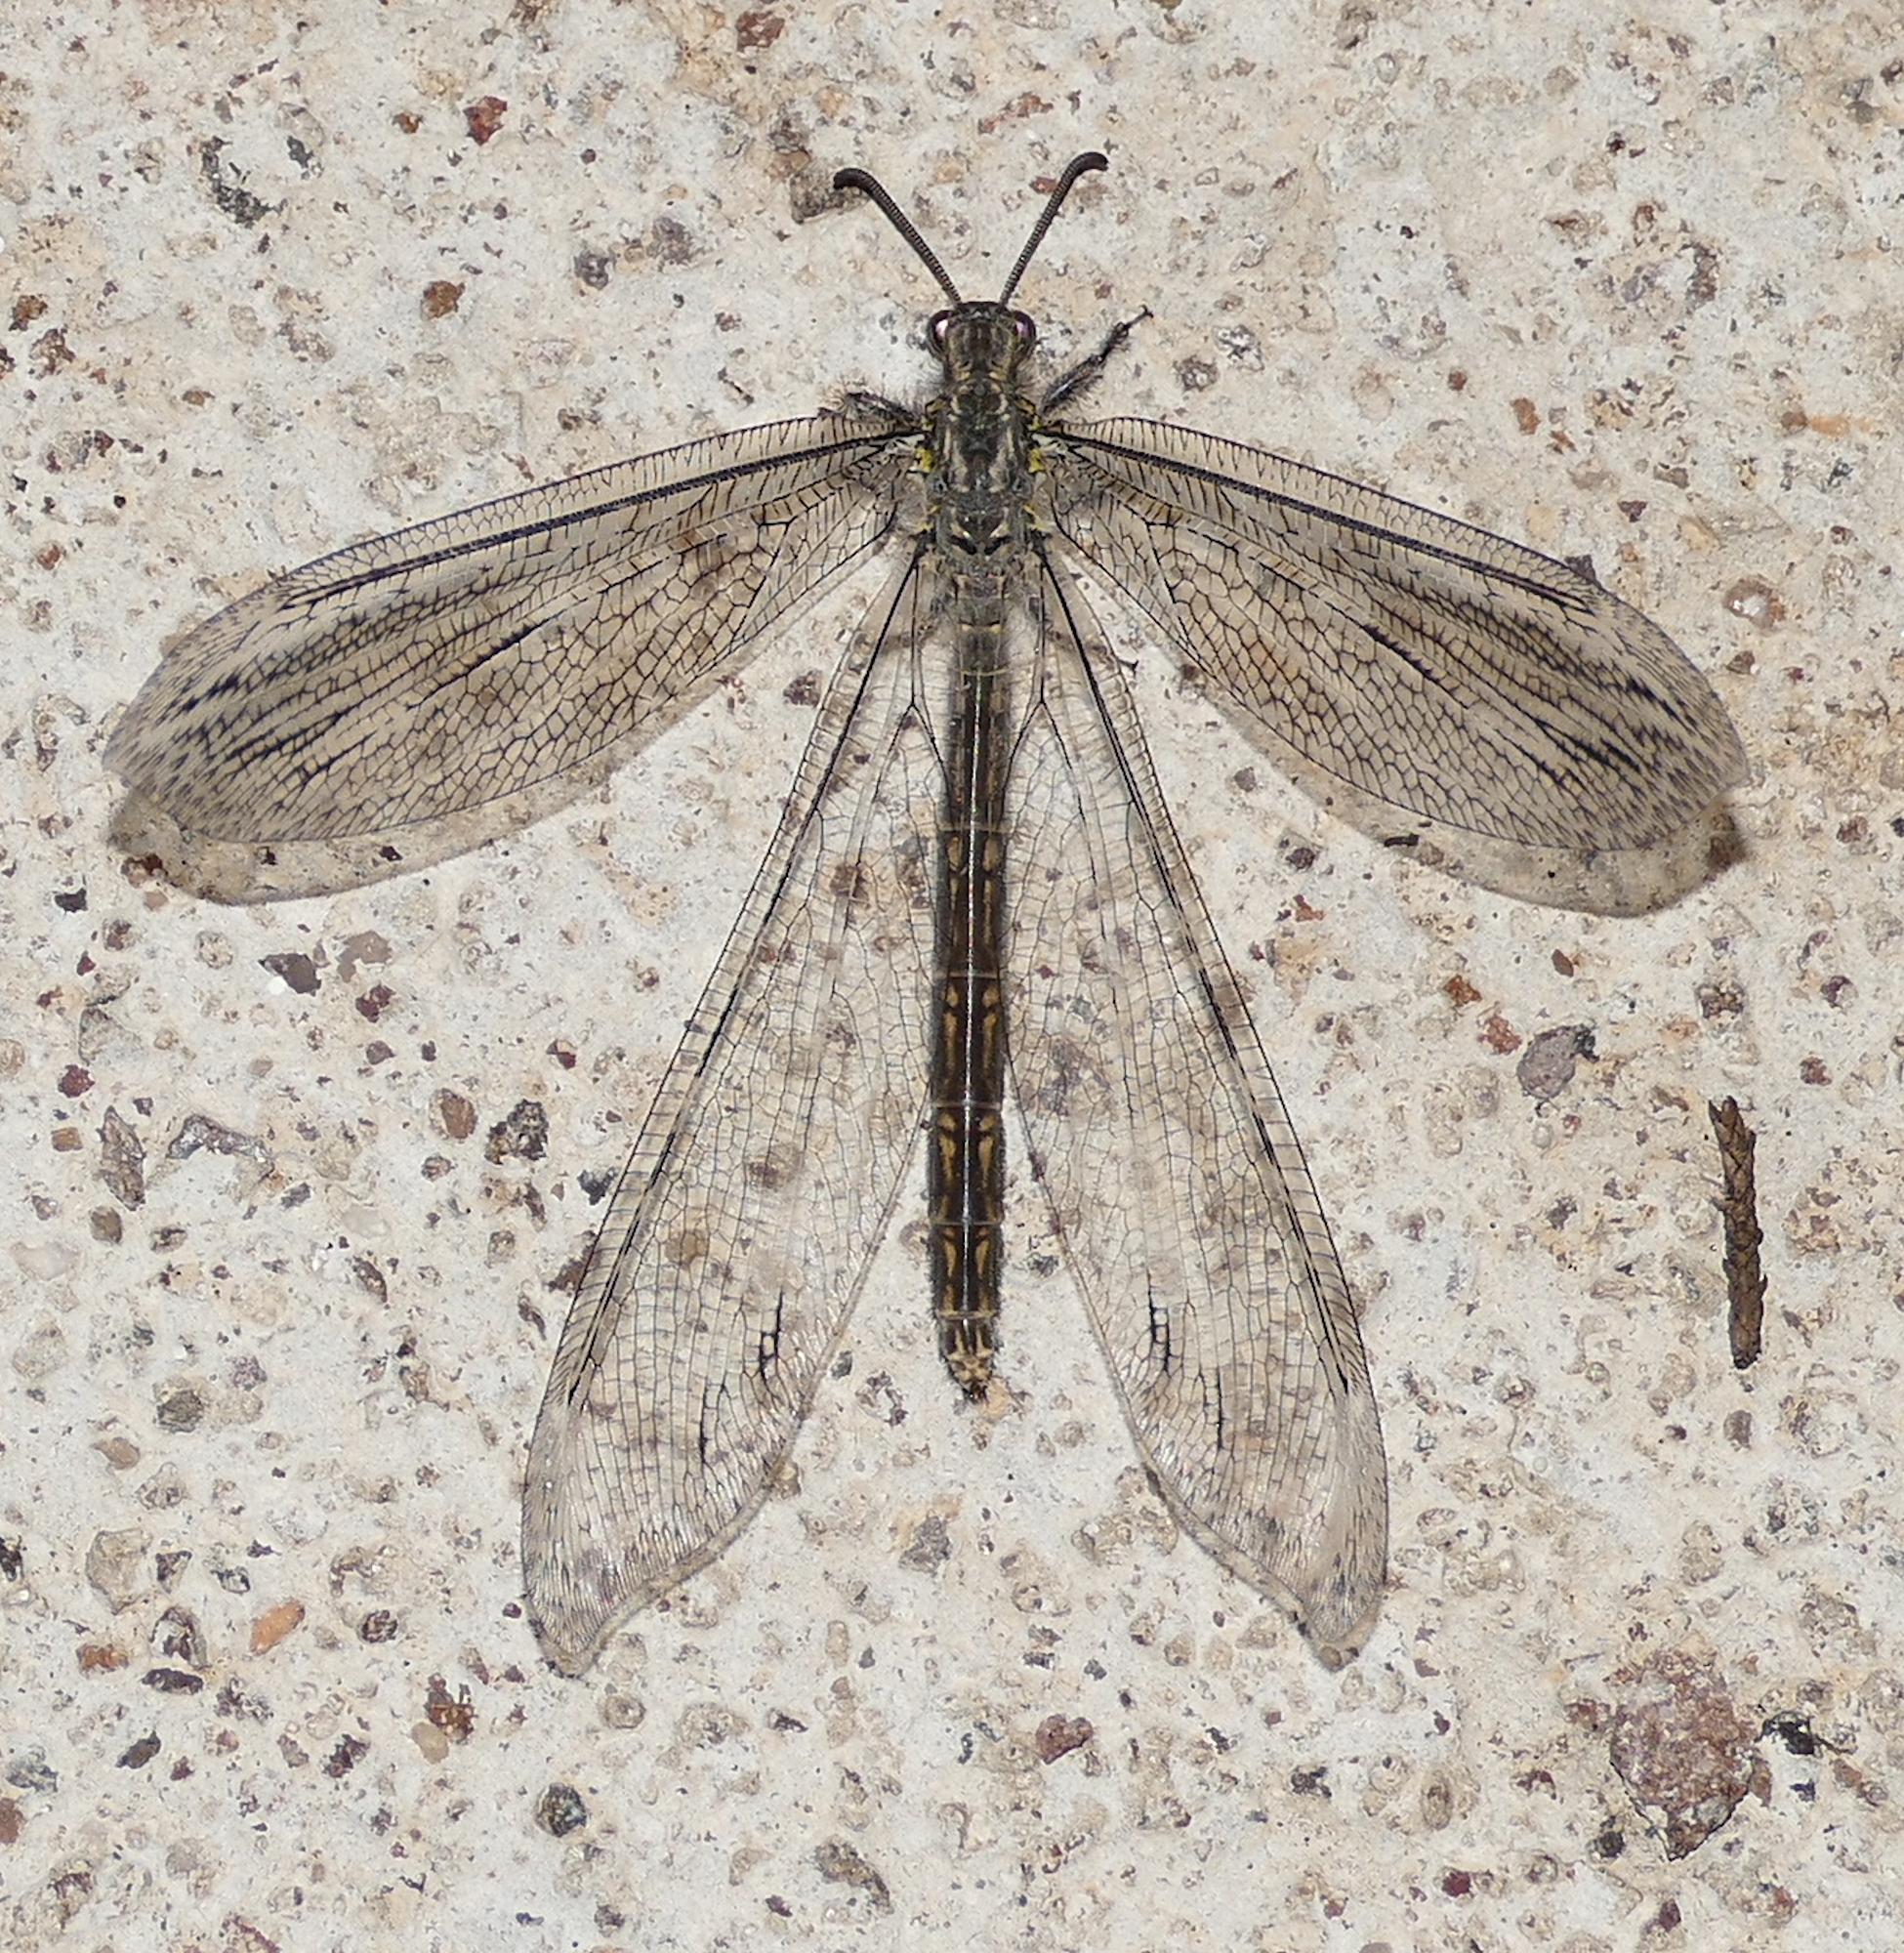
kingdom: Animalia
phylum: Arthropoda
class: Insecta
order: Neuroptera
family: Myrmeleontidae
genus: Vella
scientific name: Vella fallax
